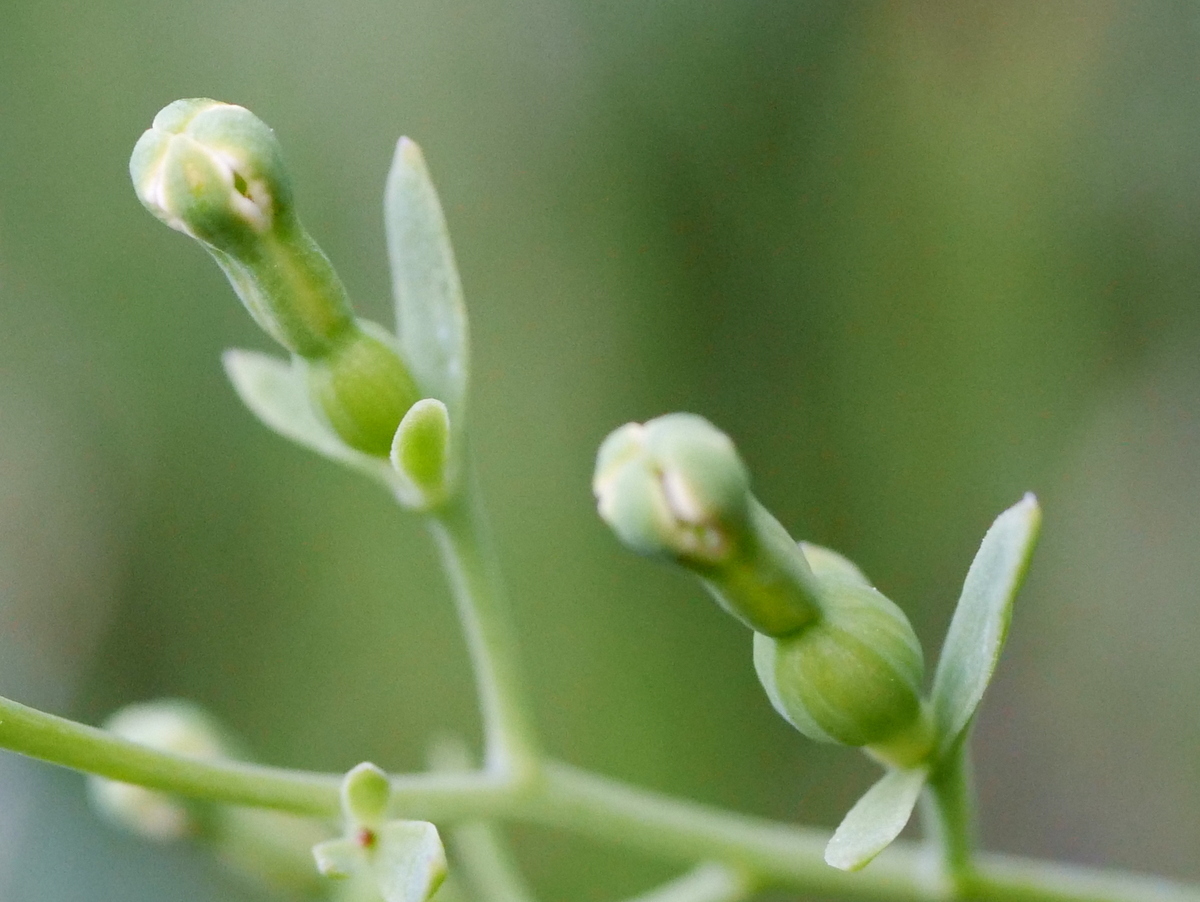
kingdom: Plantae
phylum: Tracheophyta
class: Magnoliopsida
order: Santalales
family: Thesiaceae
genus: Thesium
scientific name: Thesium alpinum
